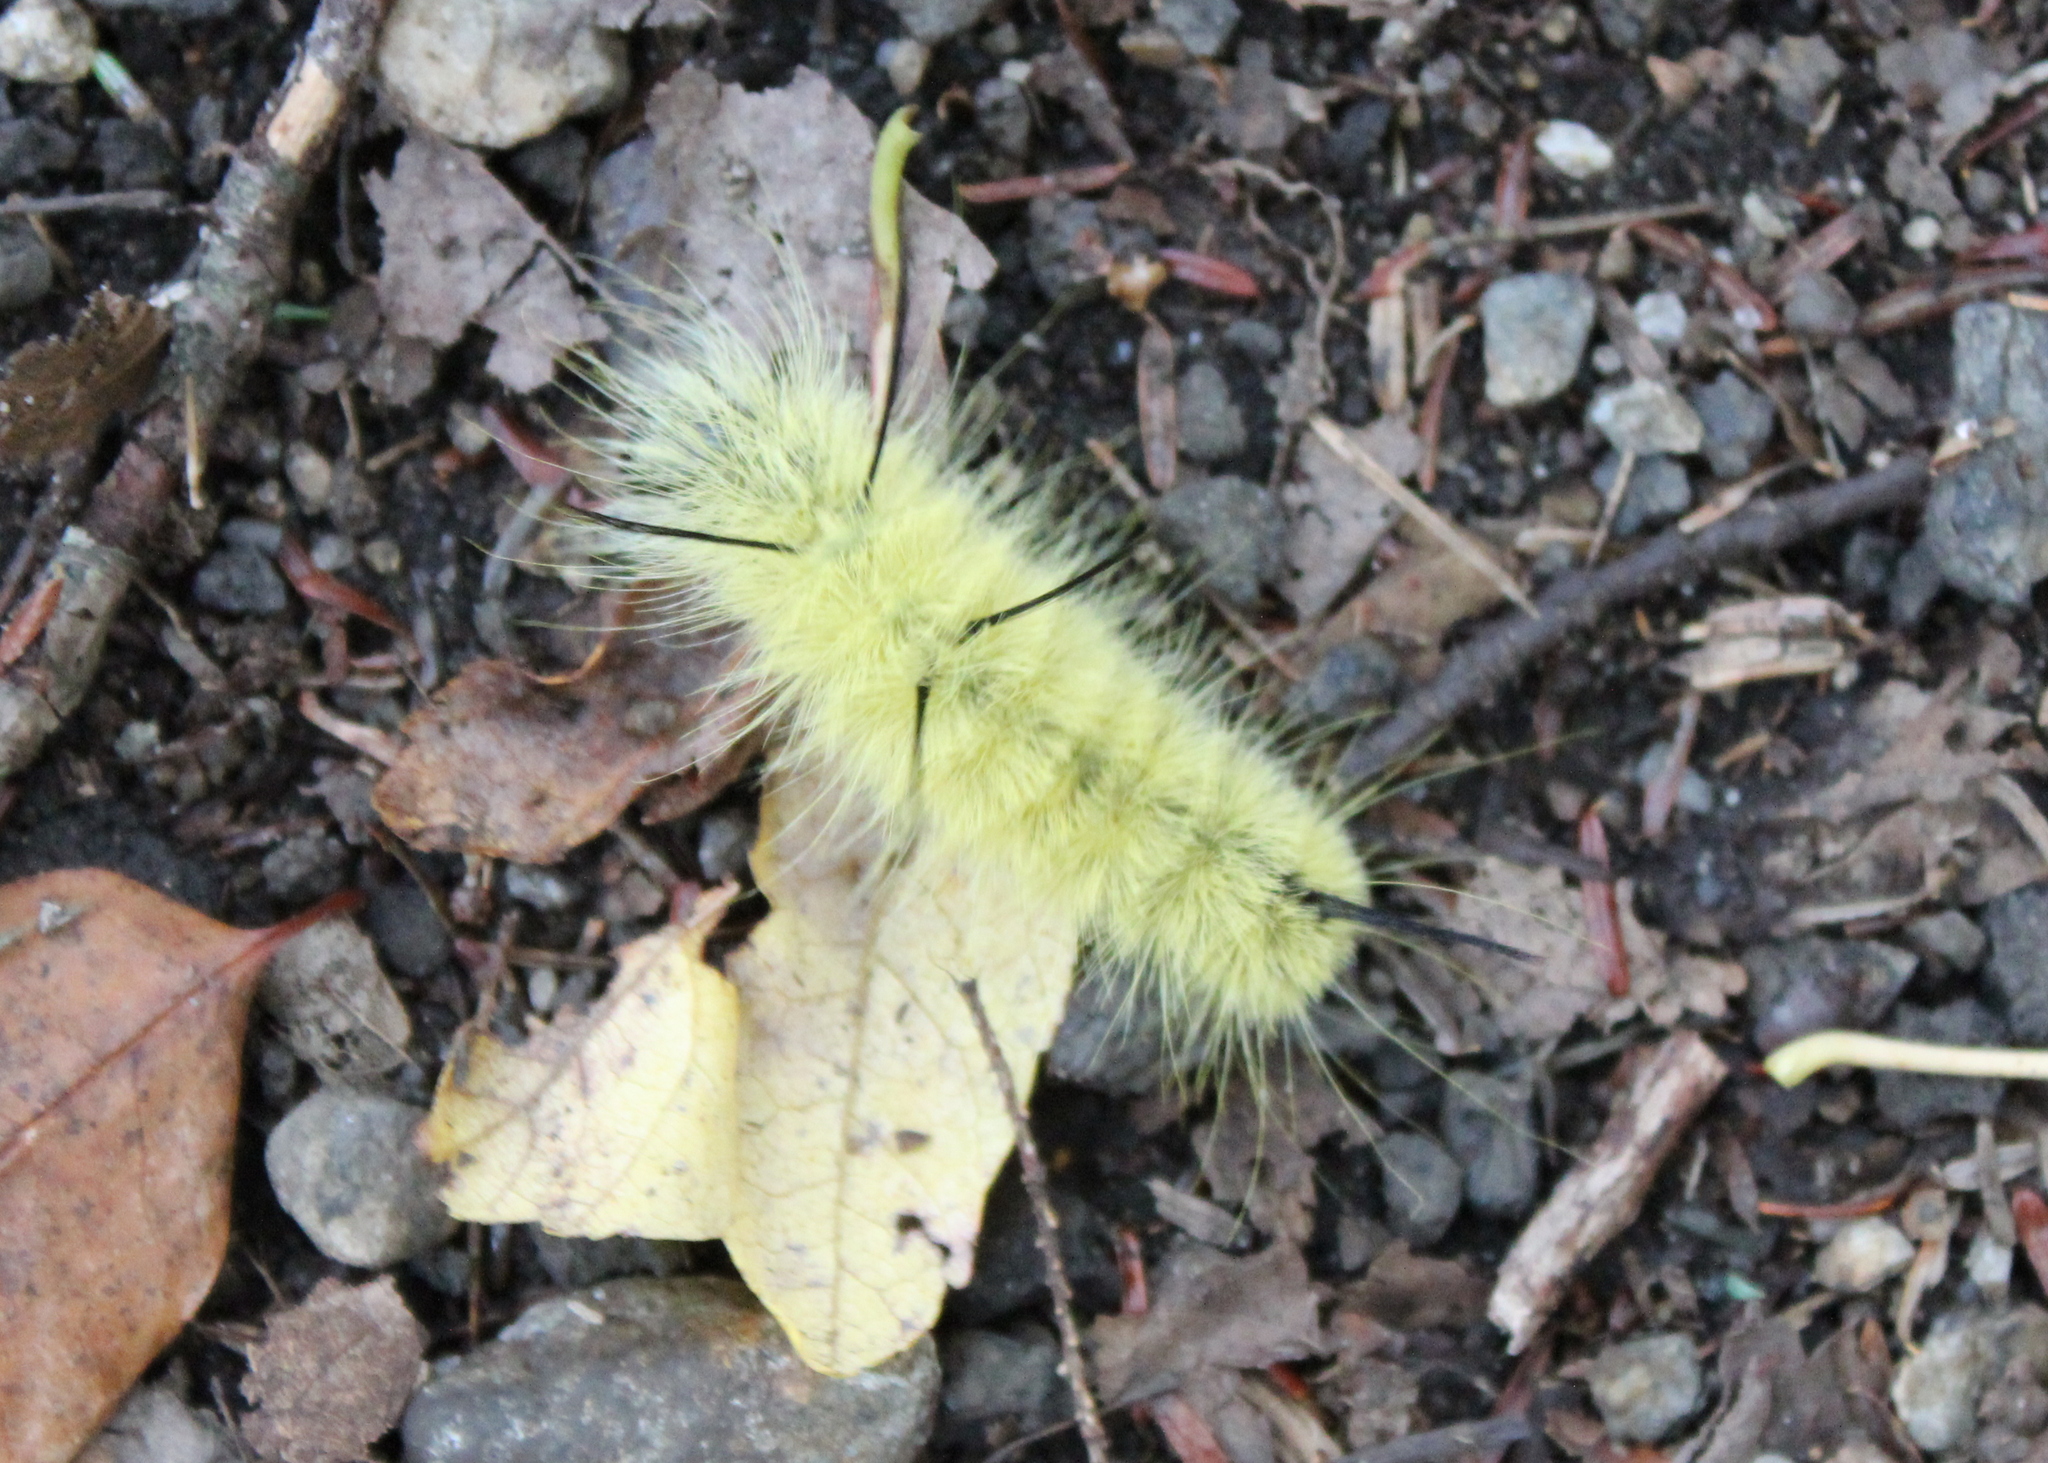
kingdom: Animalia
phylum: Arthropoda
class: Insecta
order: Lepidoptera
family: Noctuidae
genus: Acronicta
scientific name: Acronicta americana
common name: American dagger
